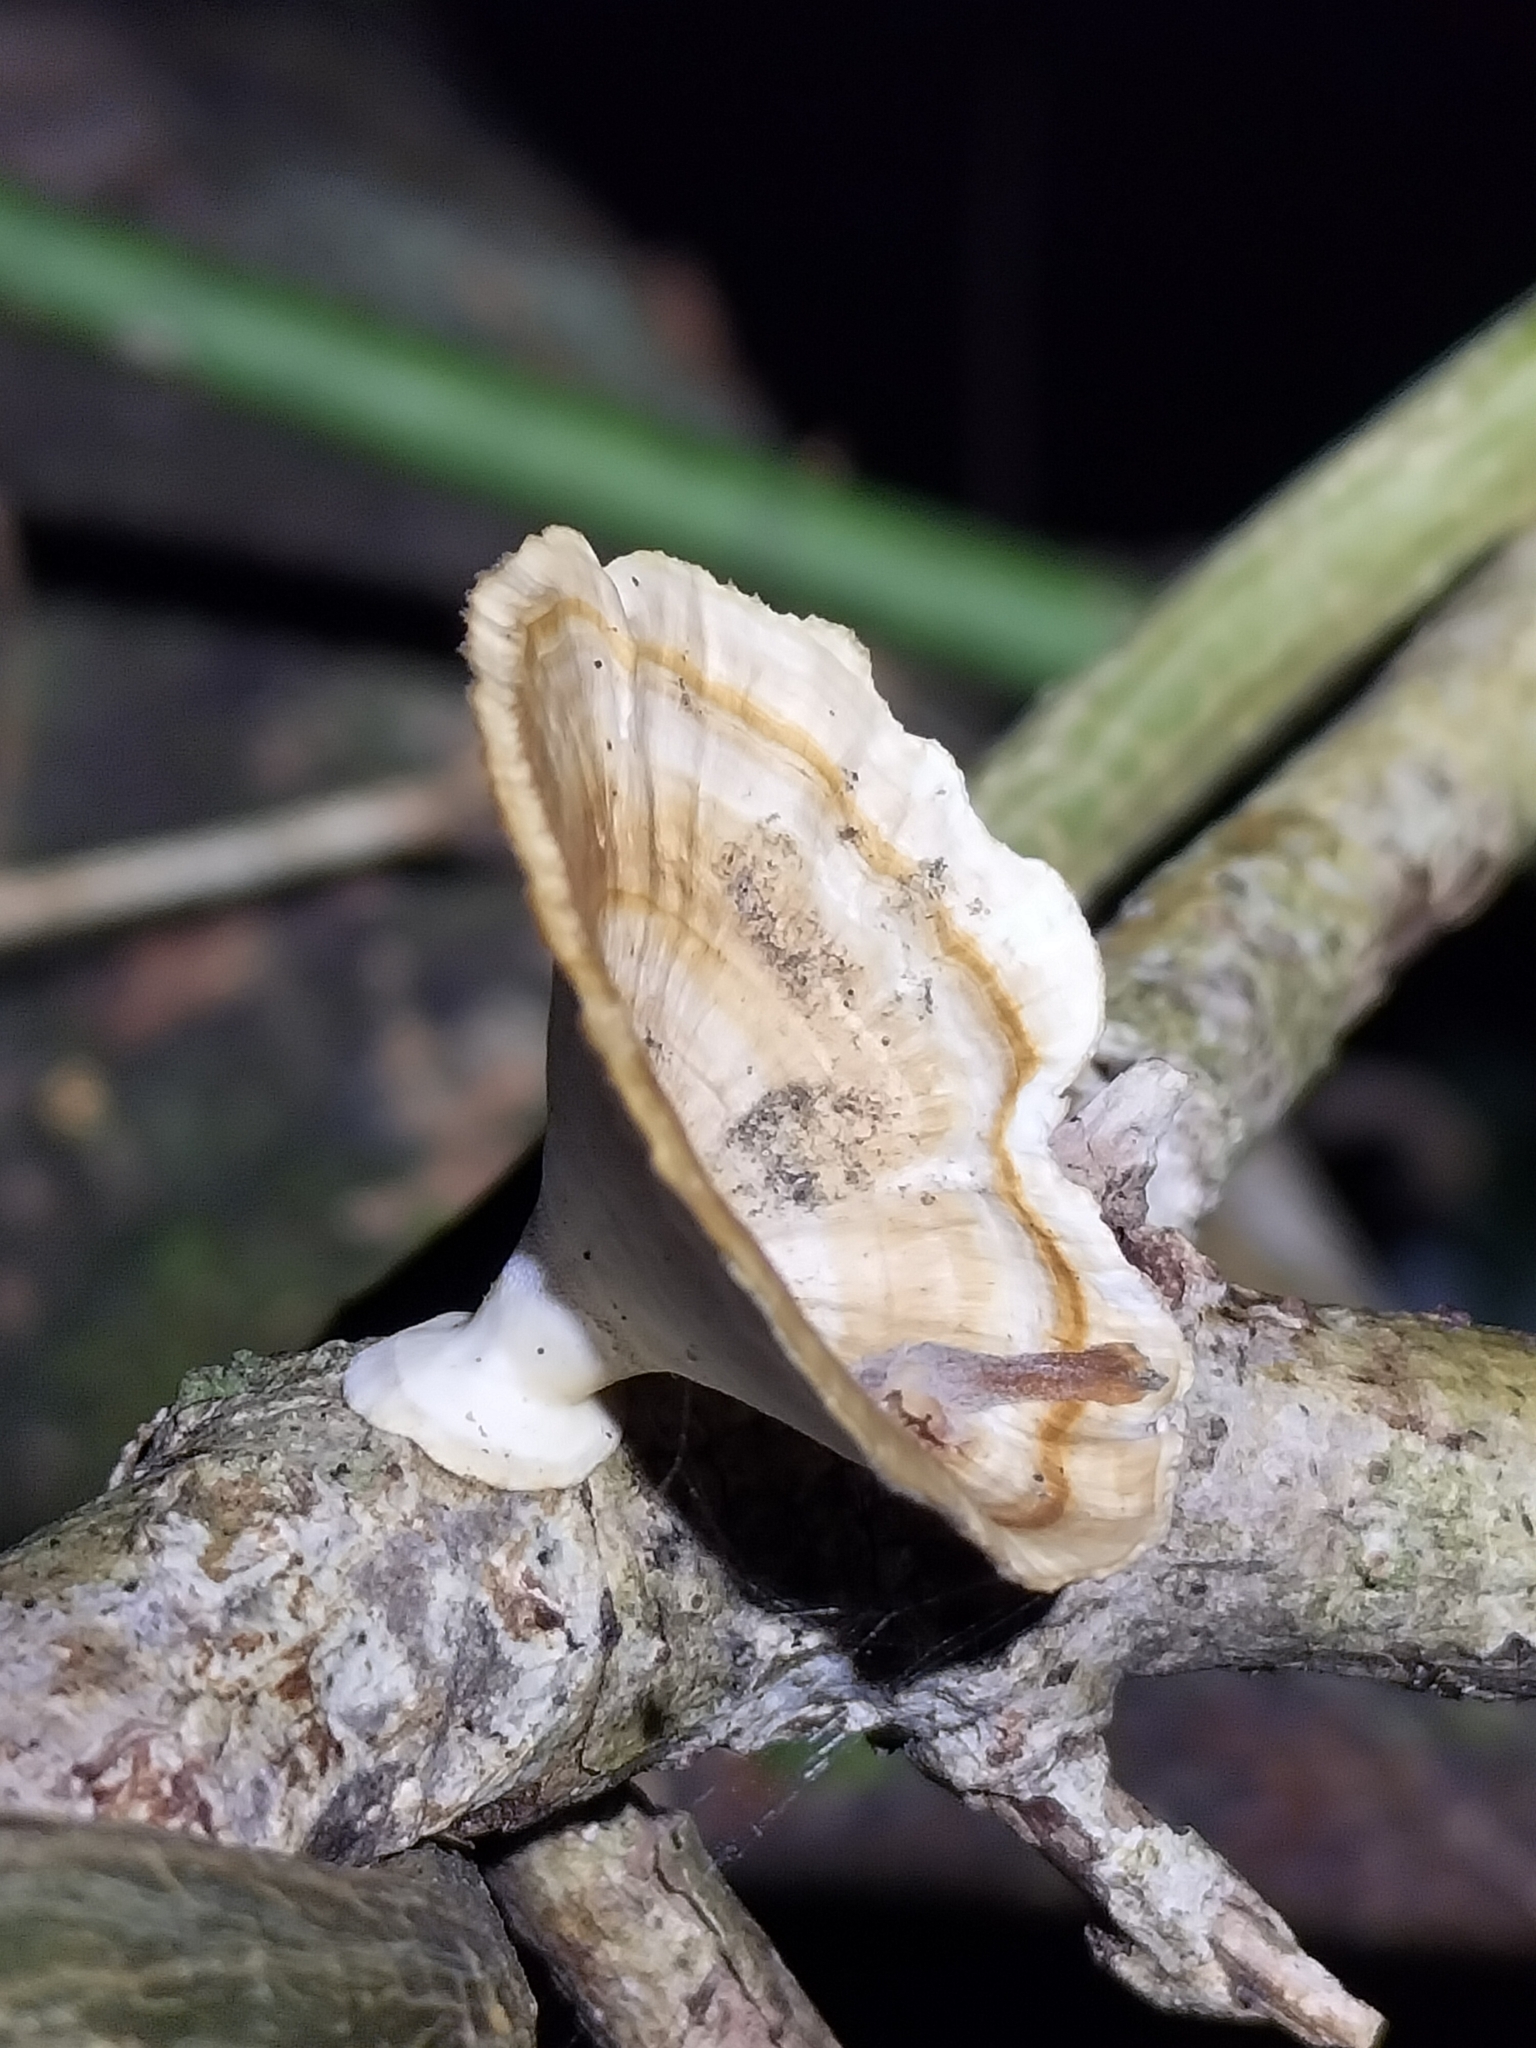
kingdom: Fungi
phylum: Basidiomycota
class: Agaricomycetes
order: Polyporales
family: Polyporaceae
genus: Microporus
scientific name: Microporus xanthopus
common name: Yellow-stemmed micropore
